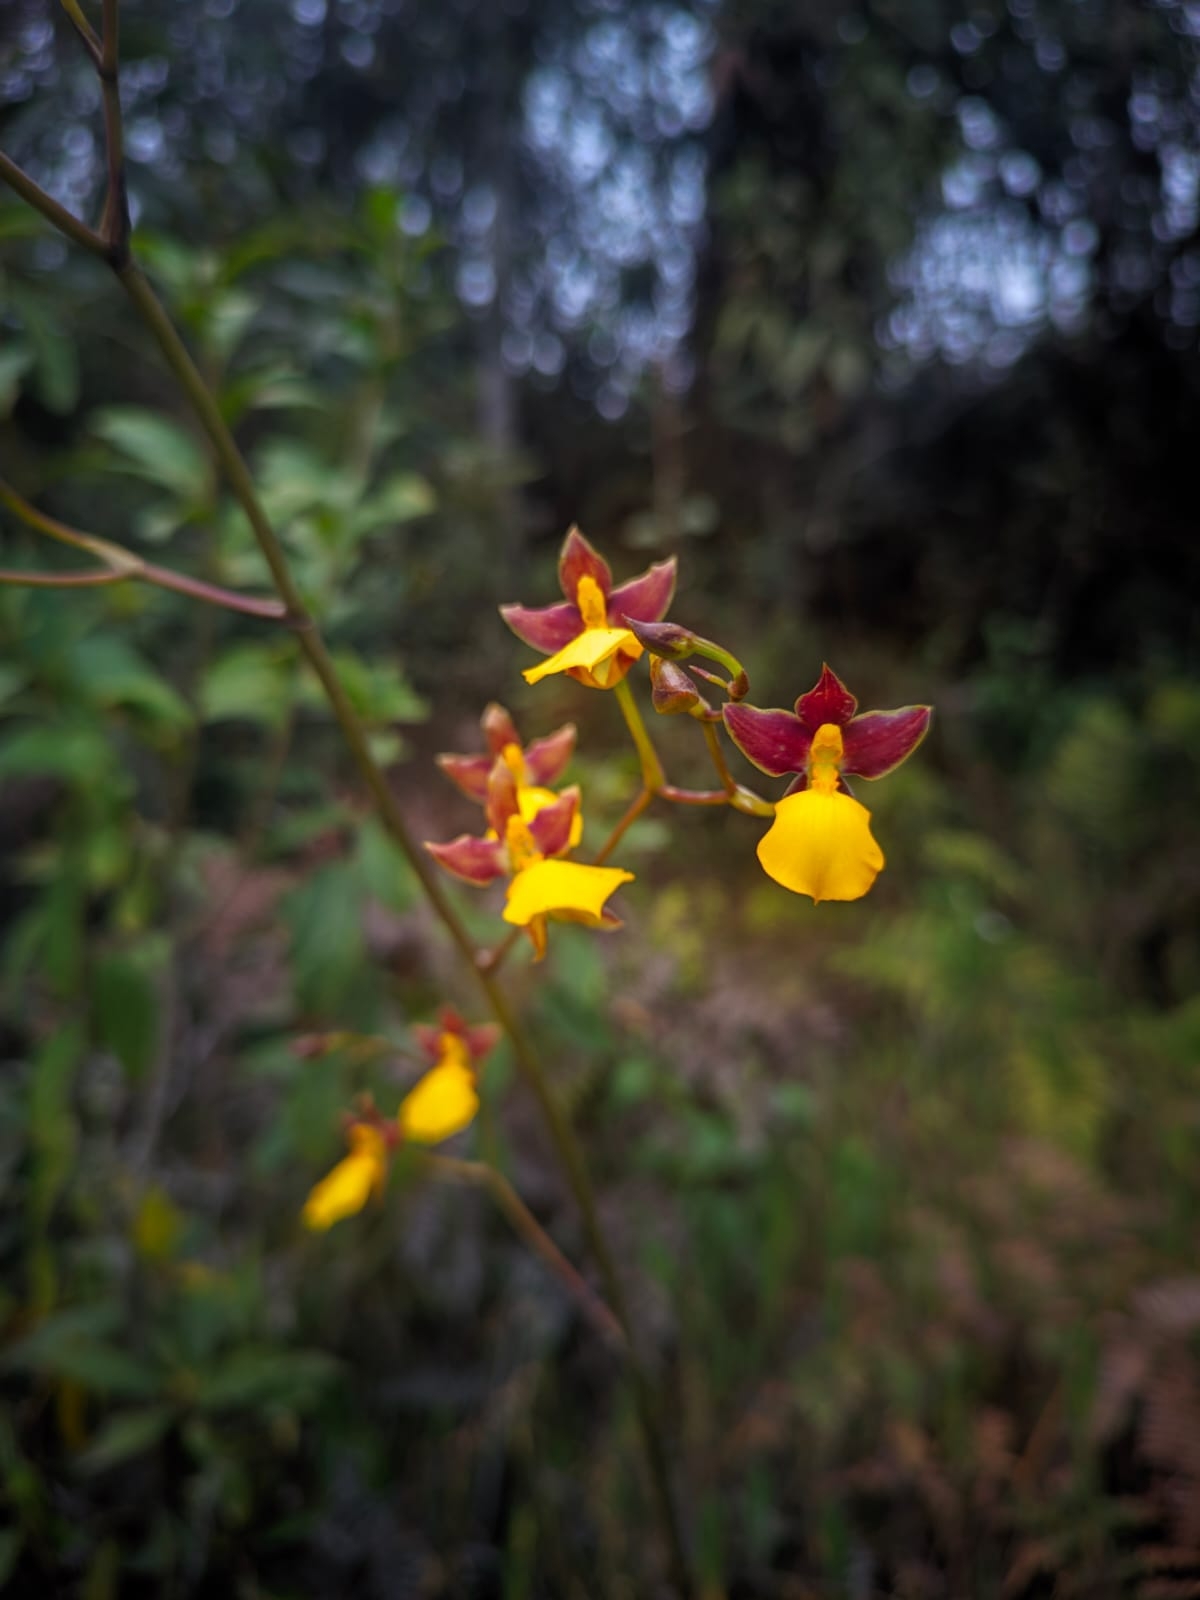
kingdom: Plantae
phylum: Tracheophyta
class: Liliopsida
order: Asparagales
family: Orchidaceae
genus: Cyrtochilum
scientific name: Cyrtochilum aureum
